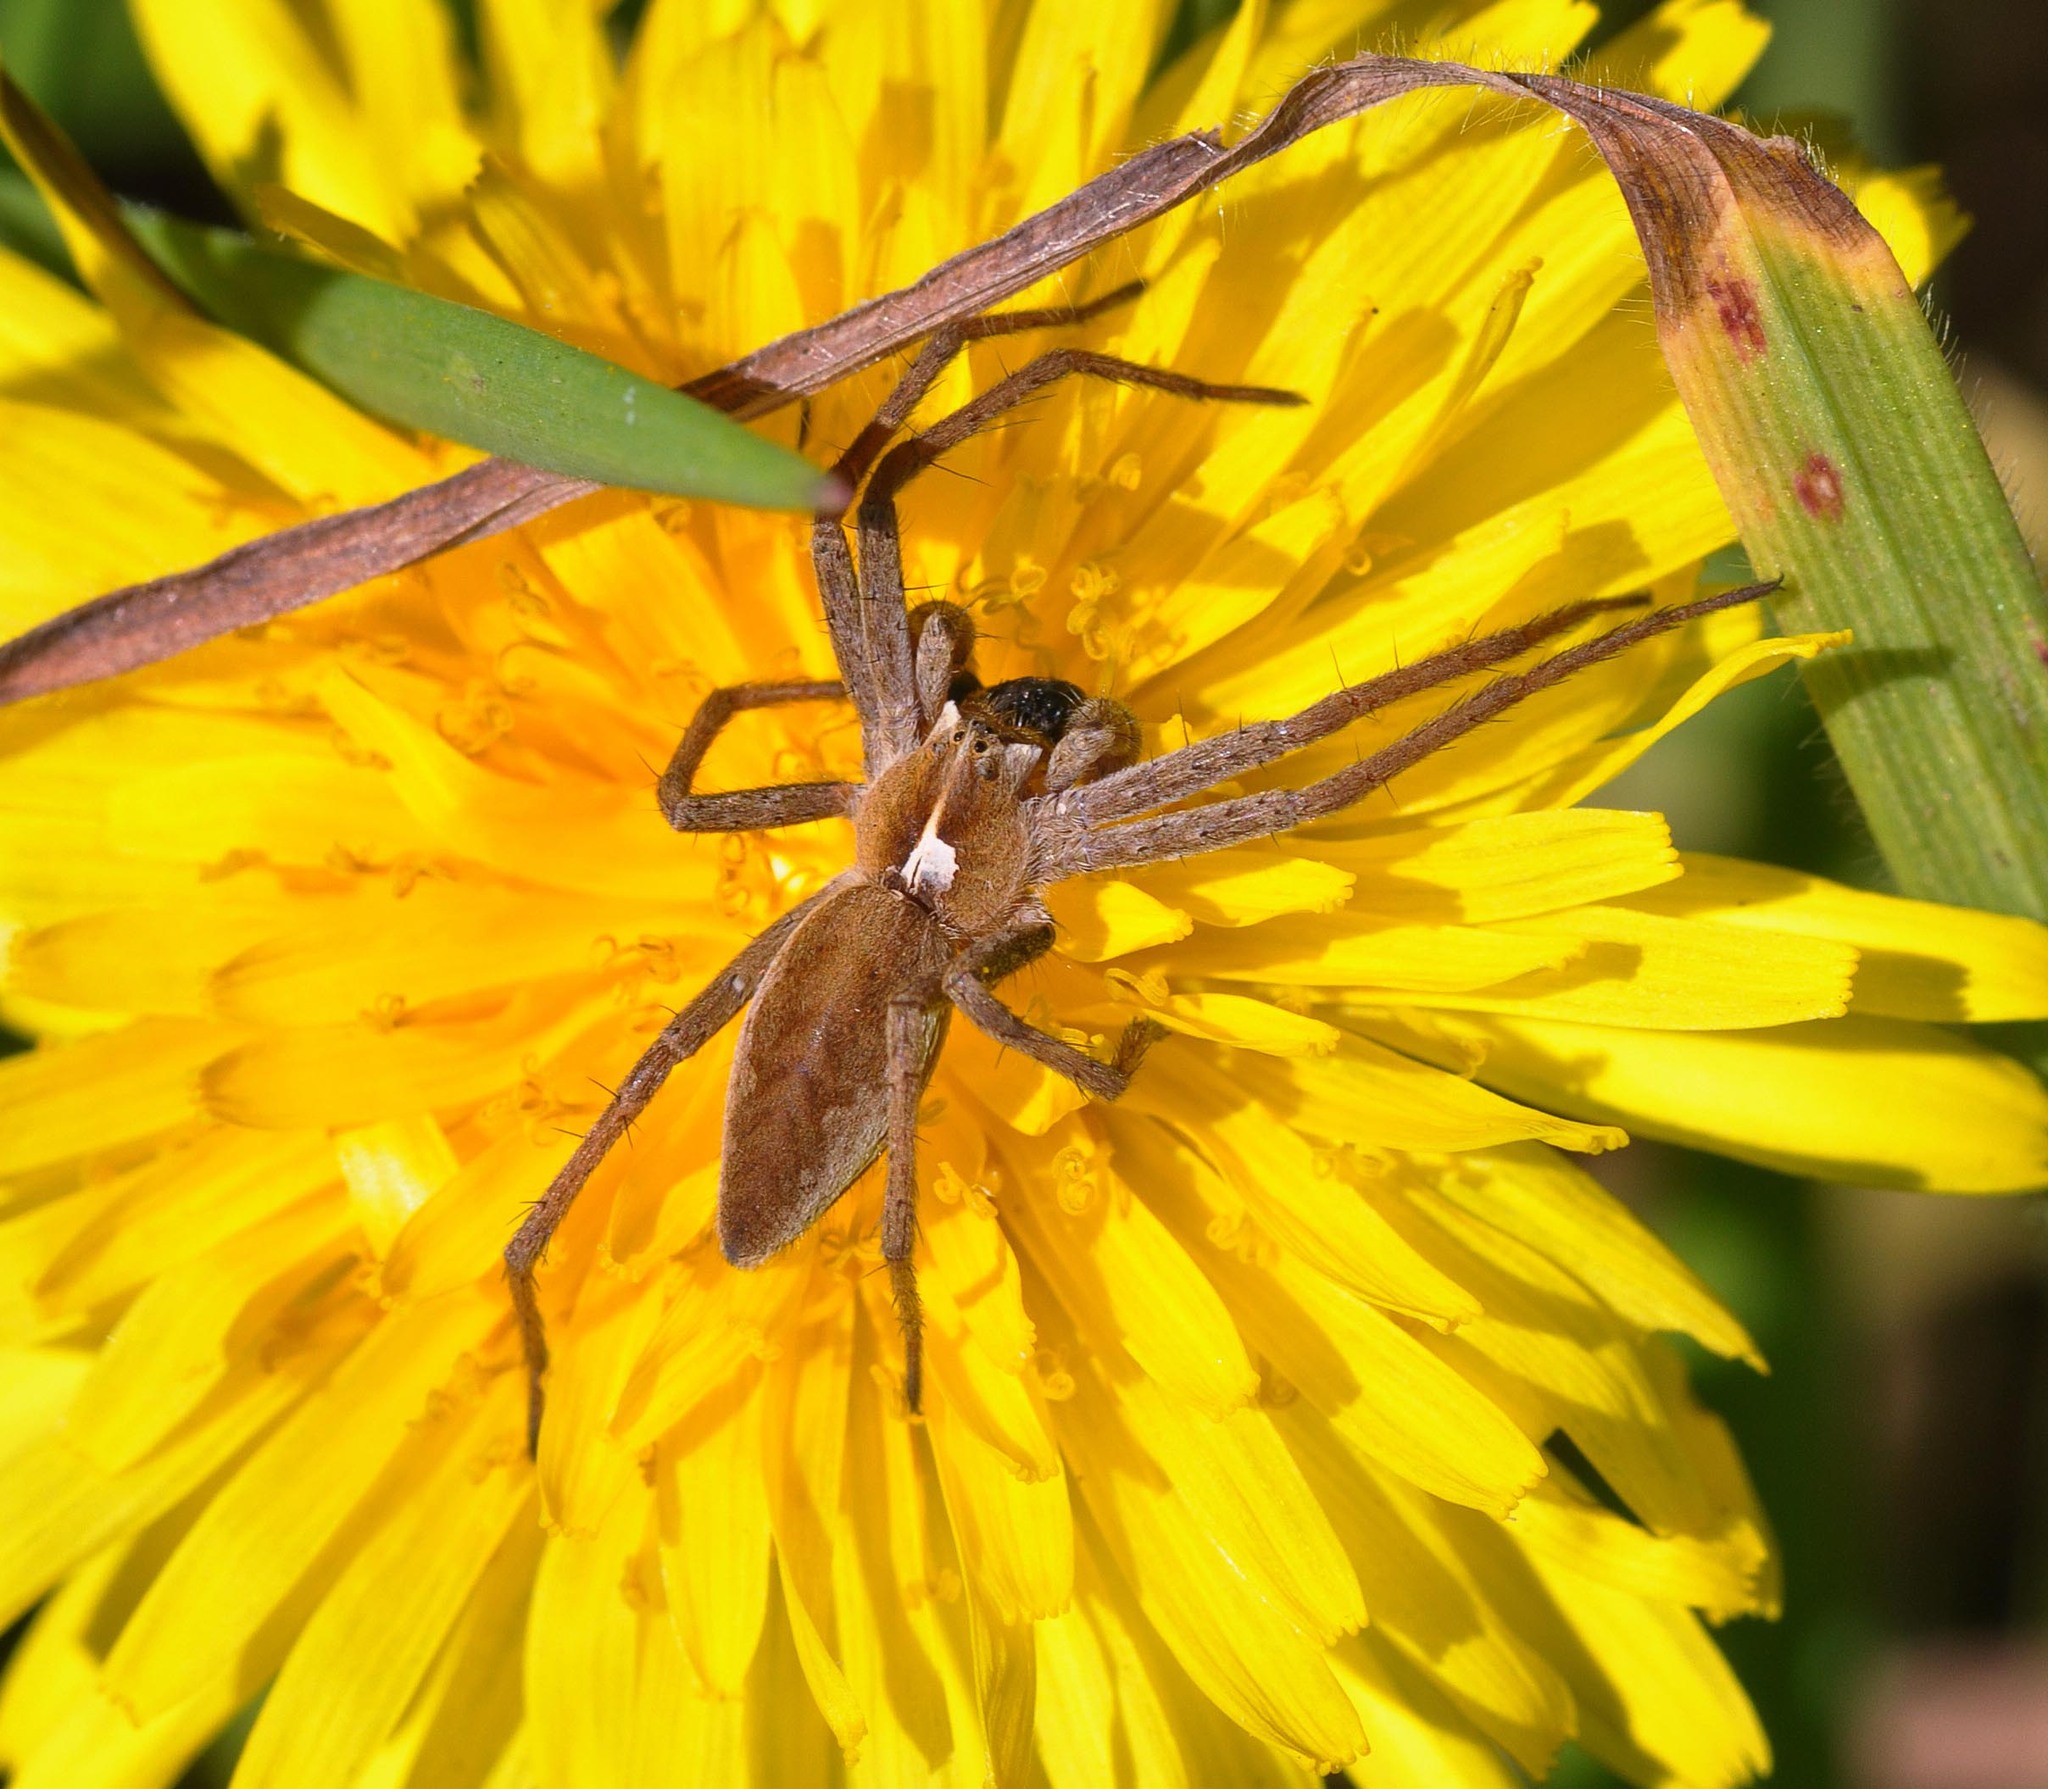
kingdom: Animalia
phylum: Arthropoda
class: Arachnida
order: Araneae
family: Pisauridae
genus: Pisaura
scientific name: Pisaura mirabilis
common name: Tent spider
